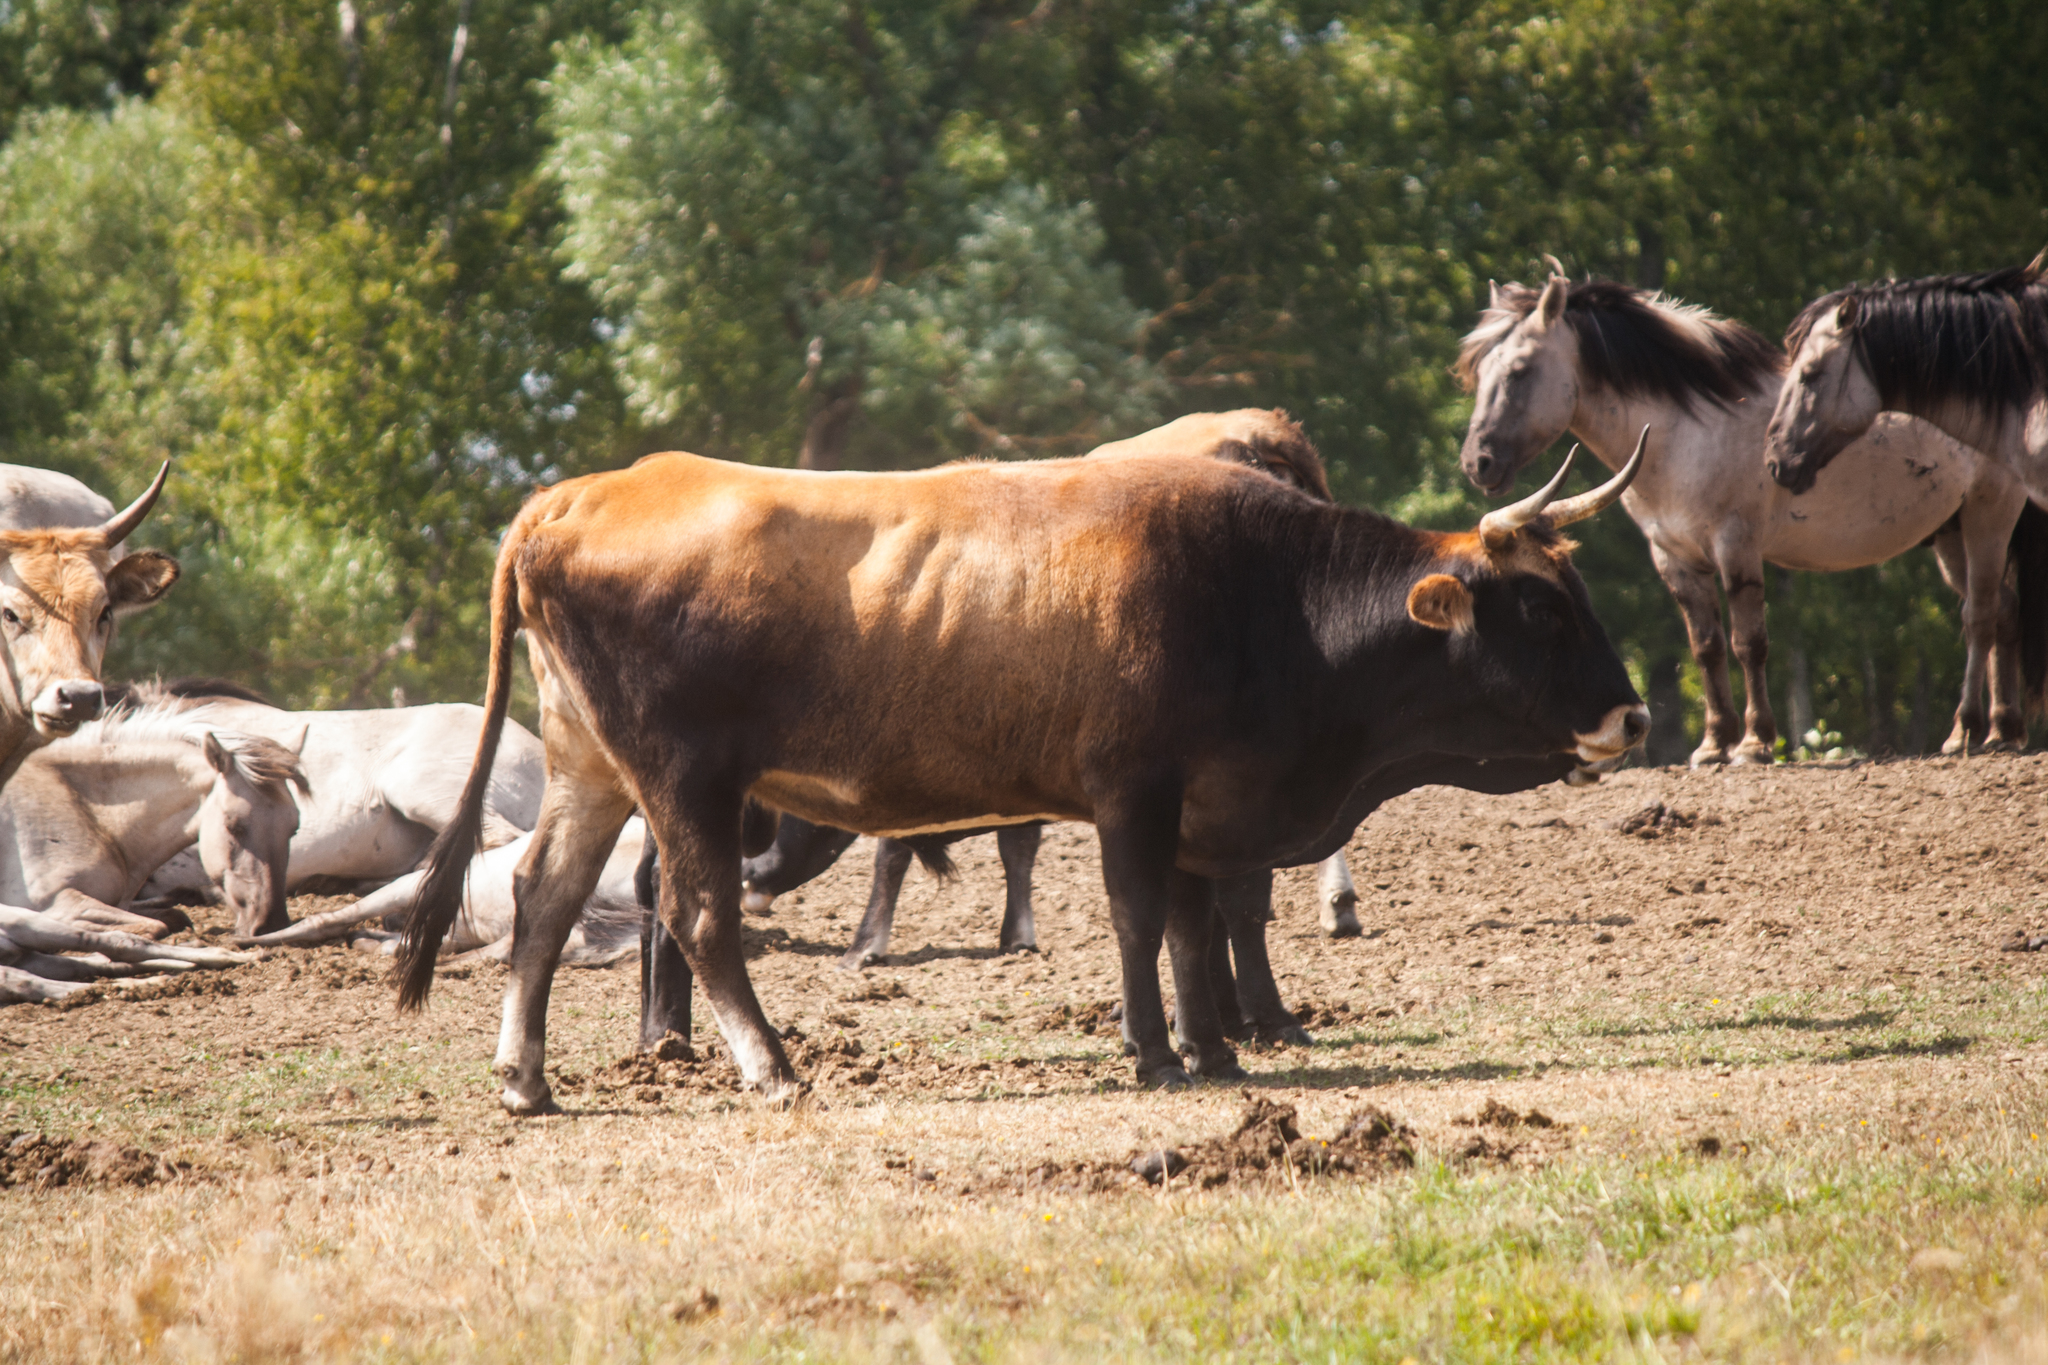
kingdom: Animalia
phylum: Chordata
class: Mammalia
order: Artiodactyla
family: Bovidae
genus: Bos
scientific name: Bos taurus
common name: Domesticated cattle
